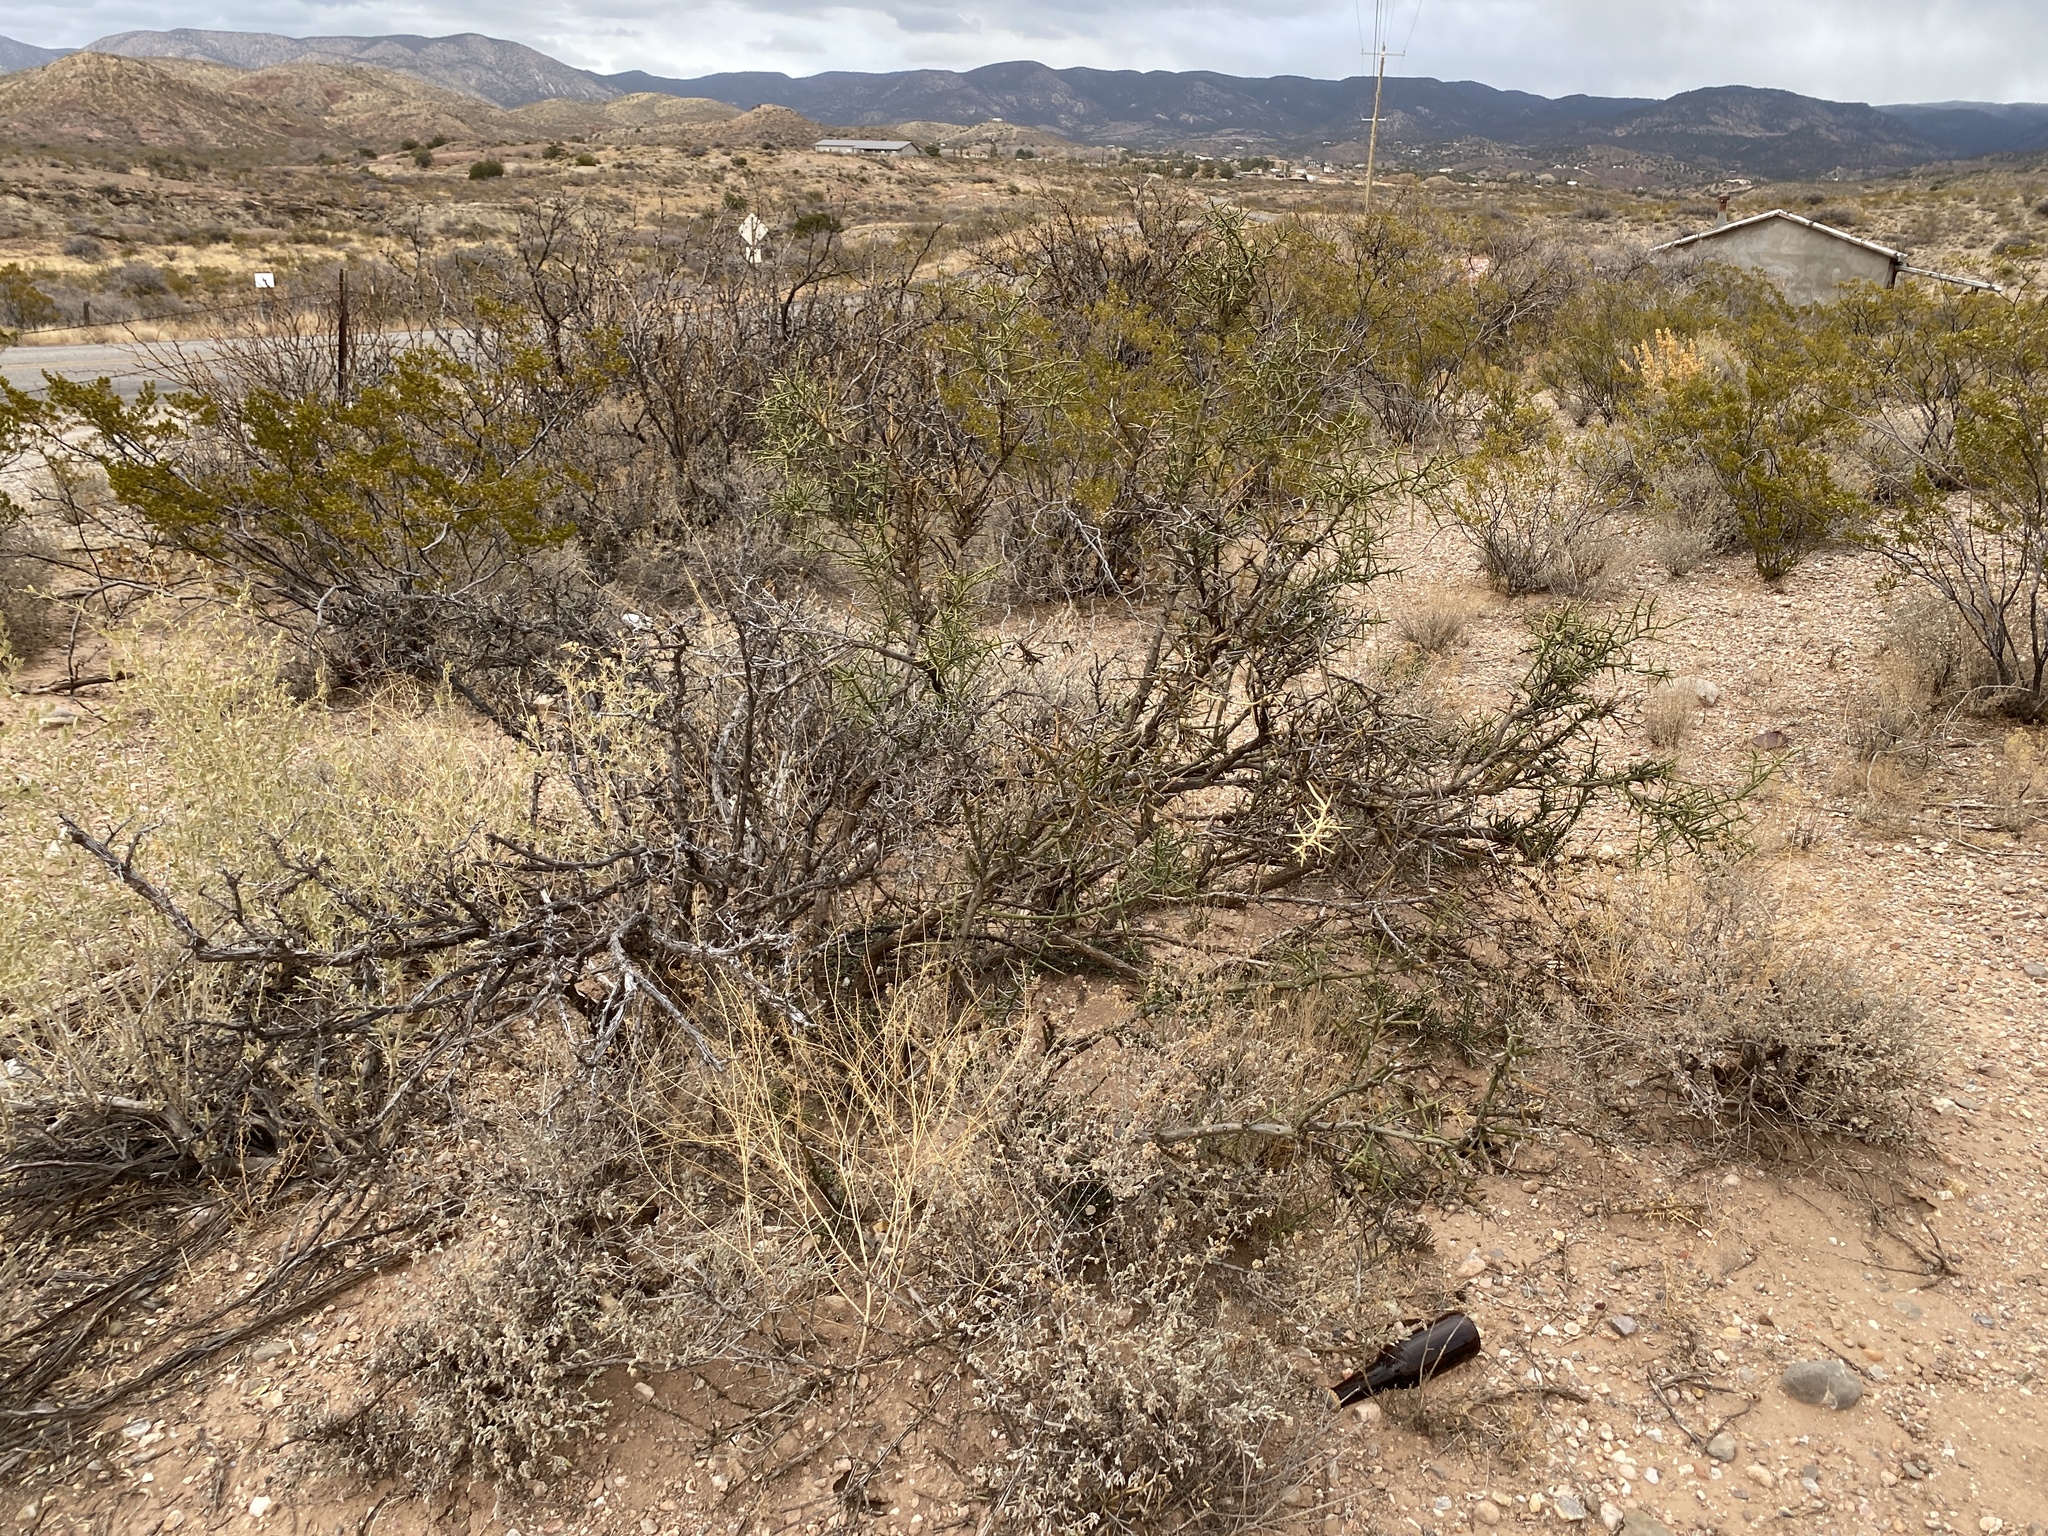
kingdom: Plantae
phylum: Tracheophyta
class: Magnoliopsida
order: Brassicales
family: Koeberliniaceae
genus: Koeberlinia
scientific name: Koeberlinia spinosa
